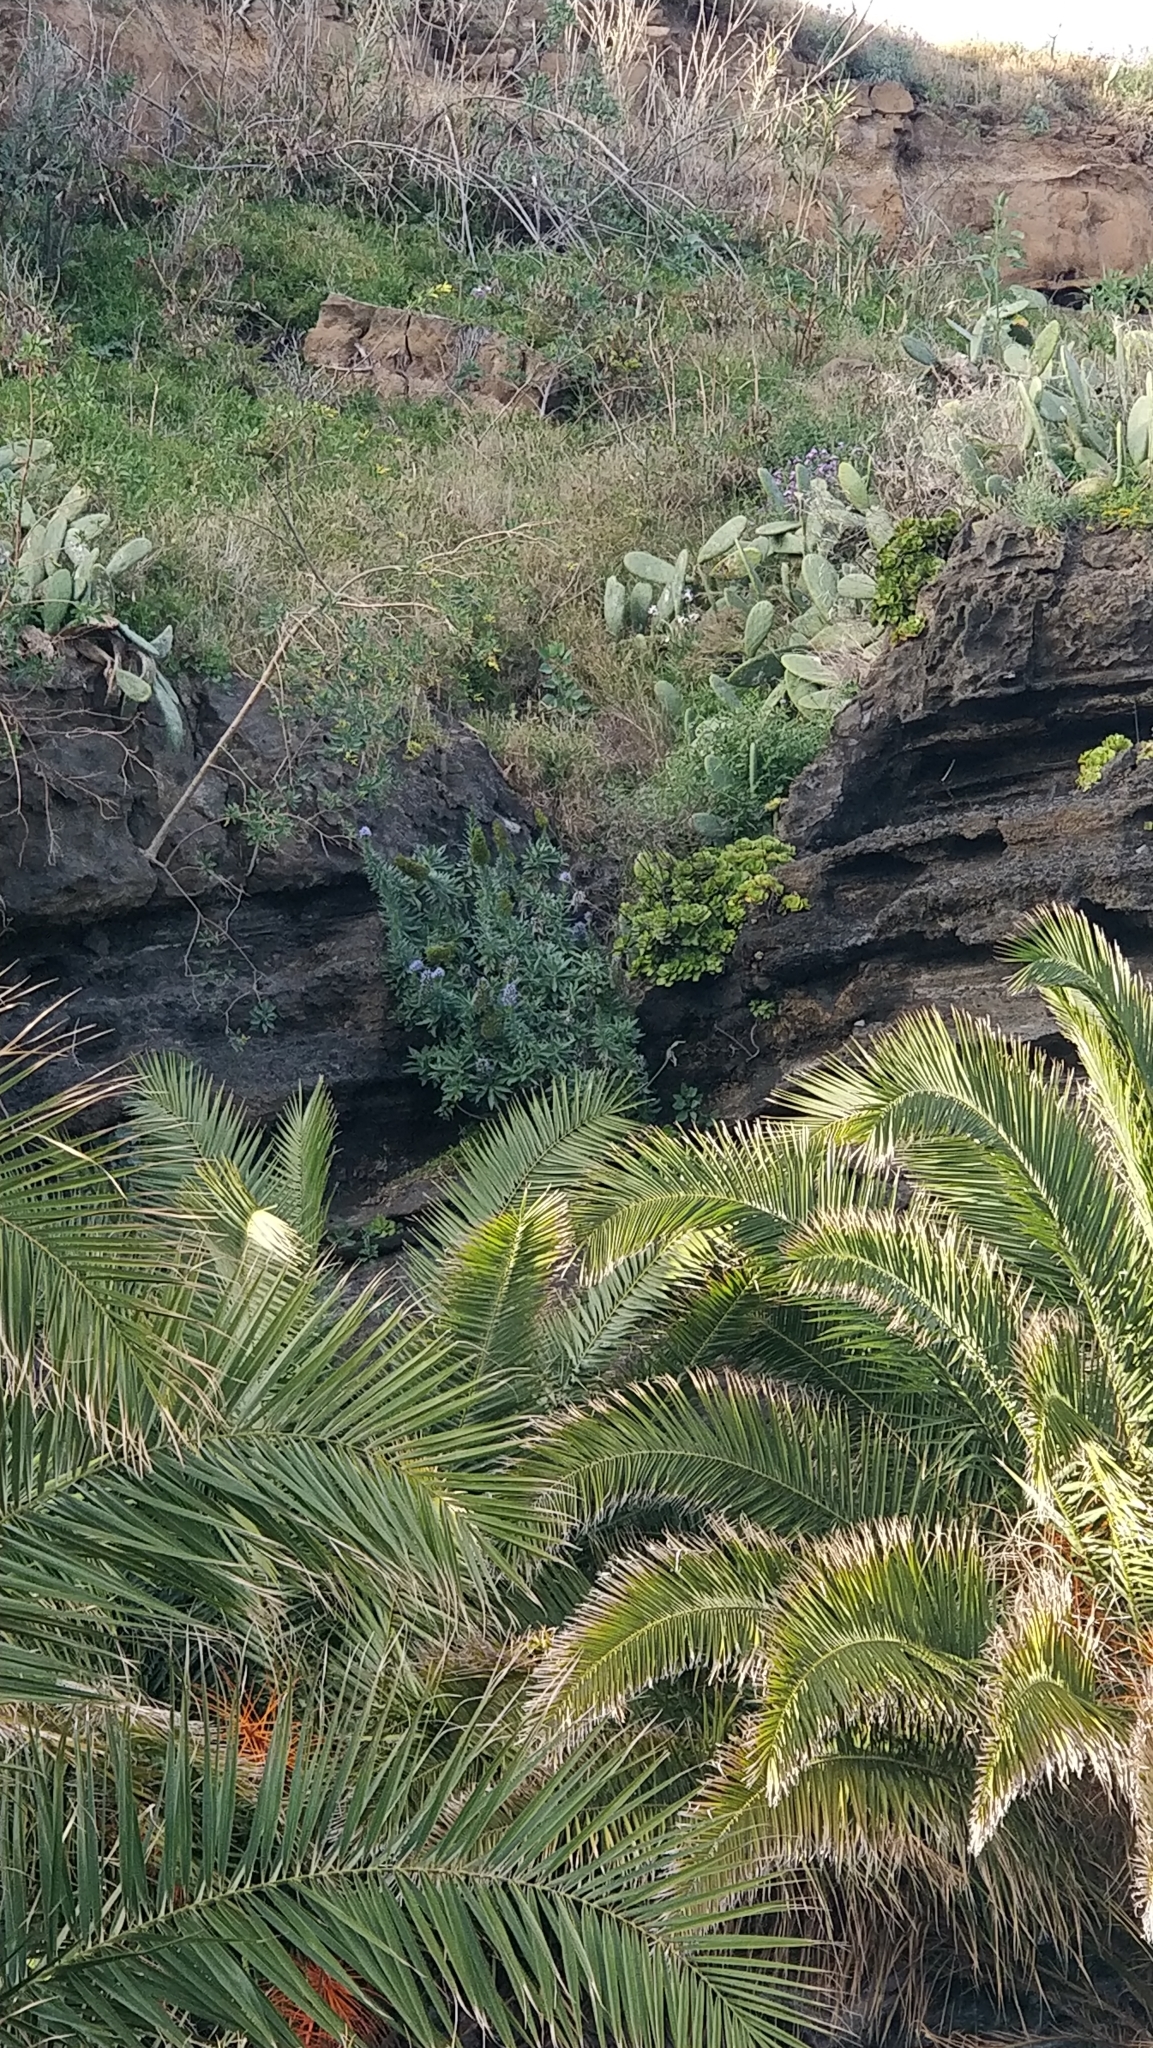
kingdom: Plantae
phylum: Tracheophyta
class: Magnoliopsida
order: Boraginales
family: Boraginaceae
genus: Echium
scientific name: Echium nervosum
